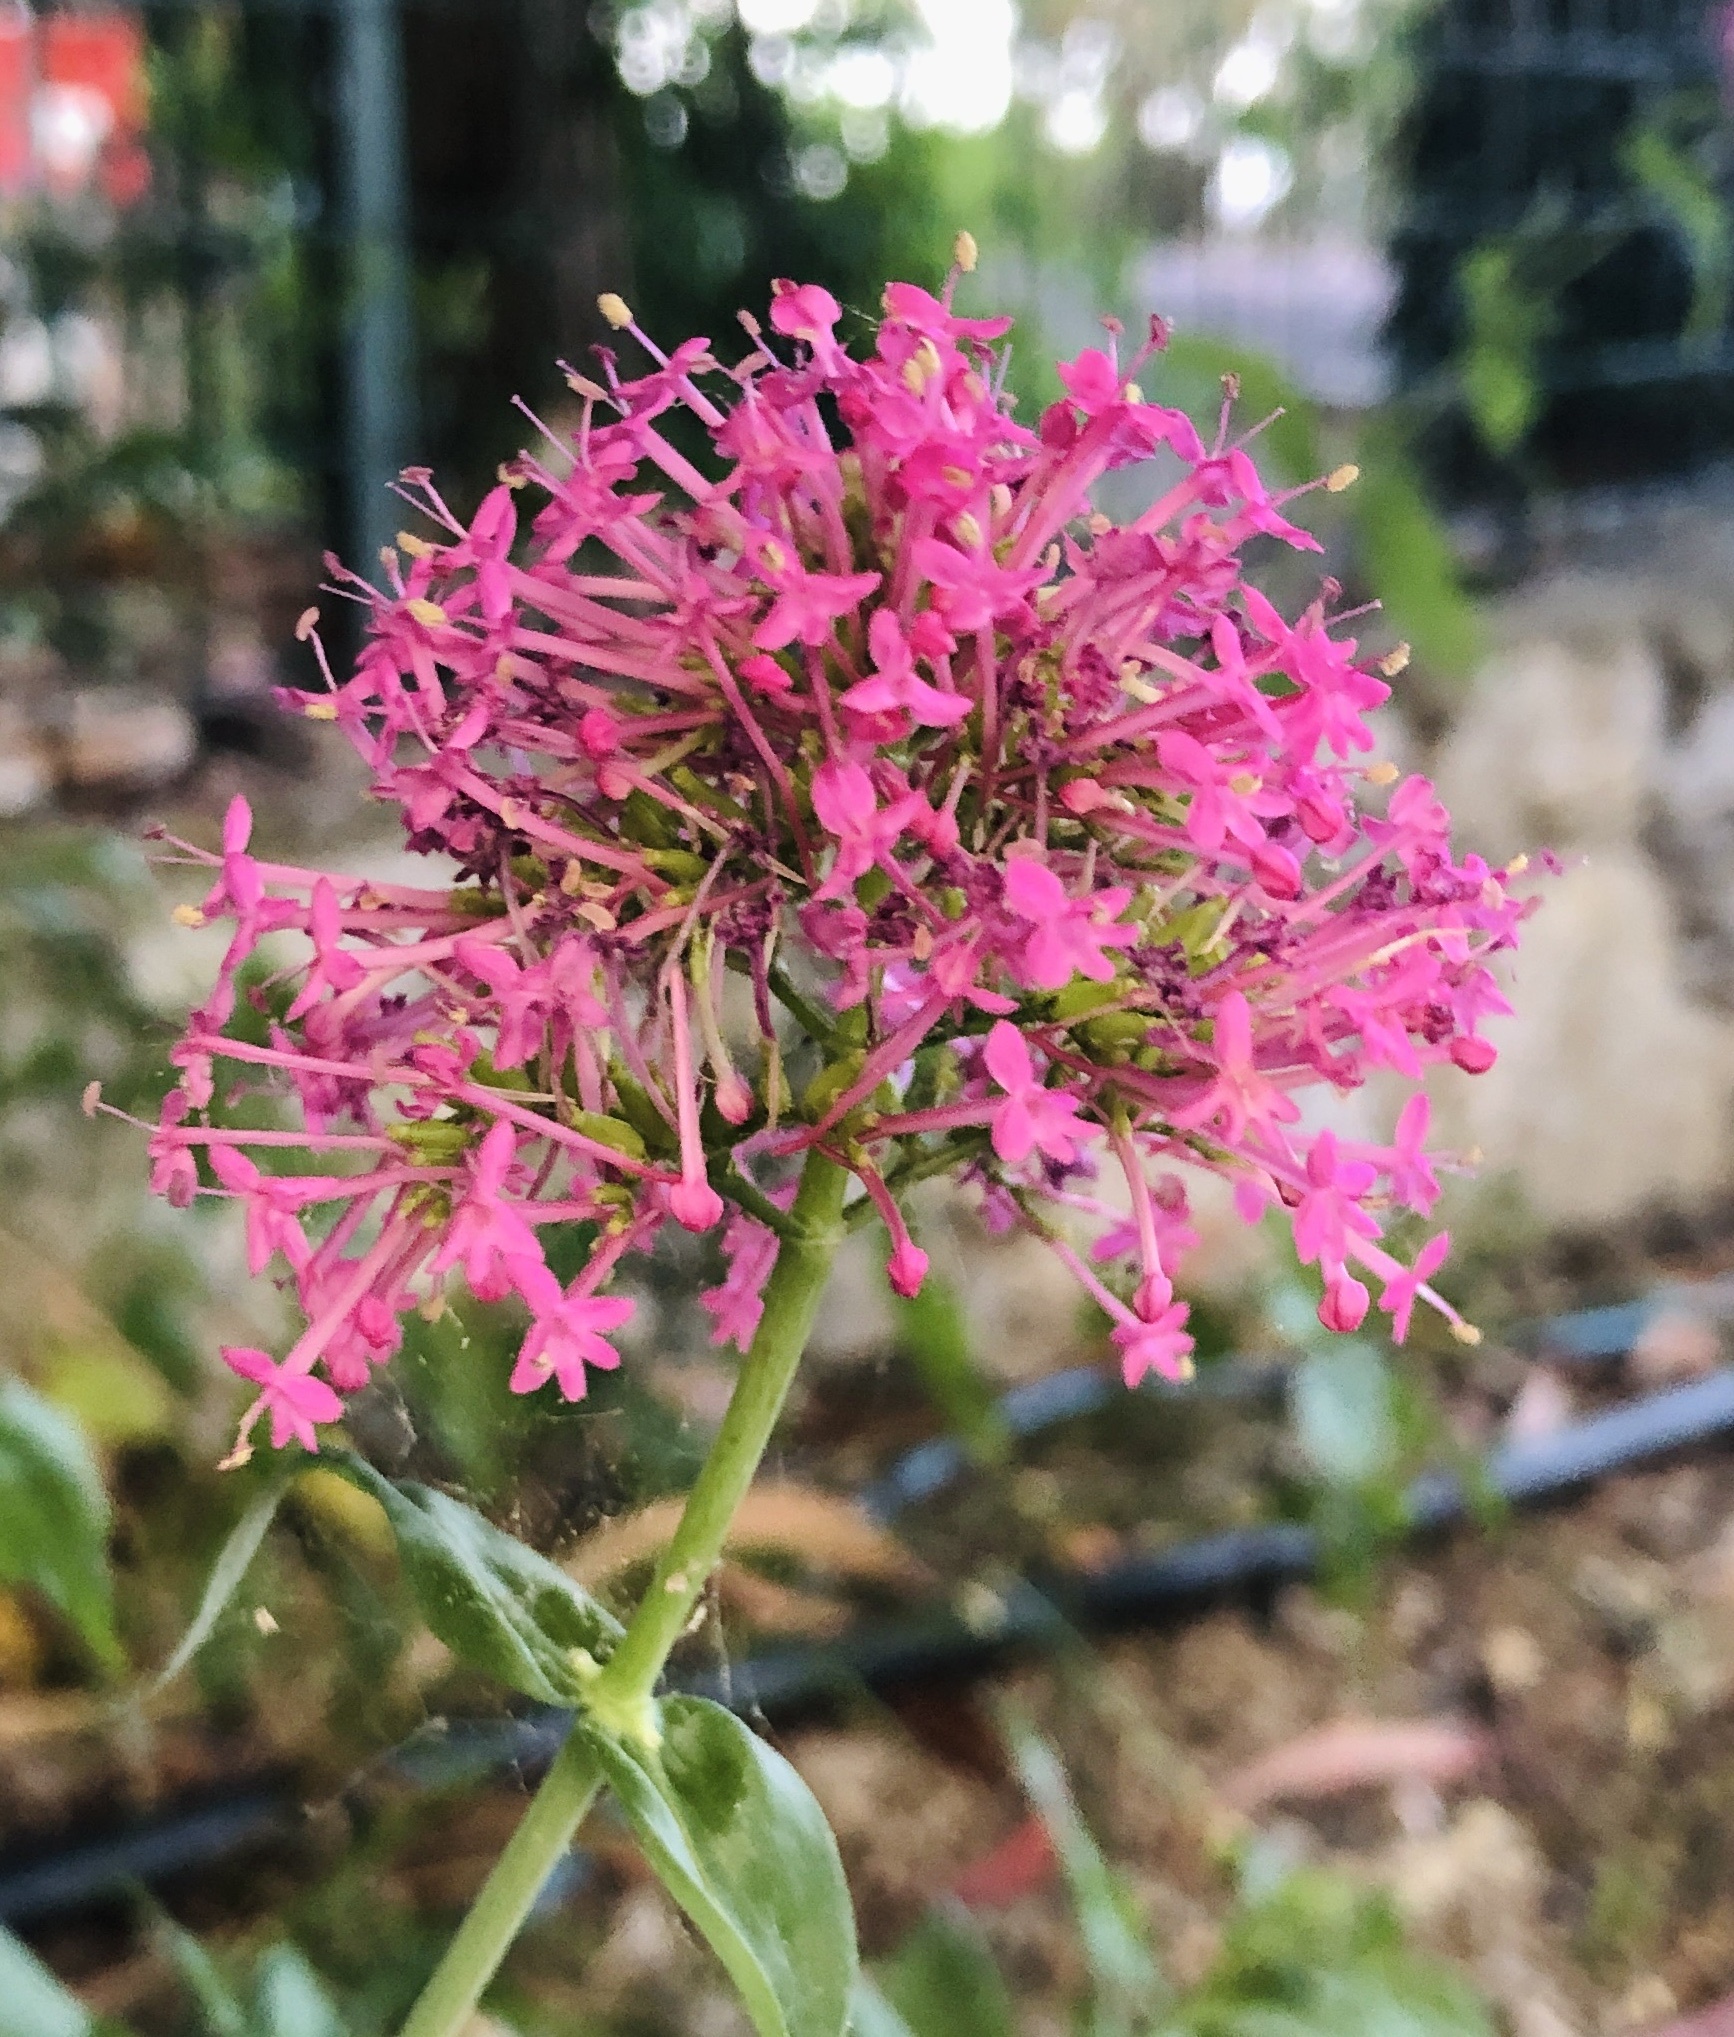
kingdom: Plantae
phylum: Tracheophyta
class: Magnoliopsida
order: Dipsacales
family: Caprifoliaceae
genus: Centranthus
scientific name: Centranthus ruber
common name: Red valerian
